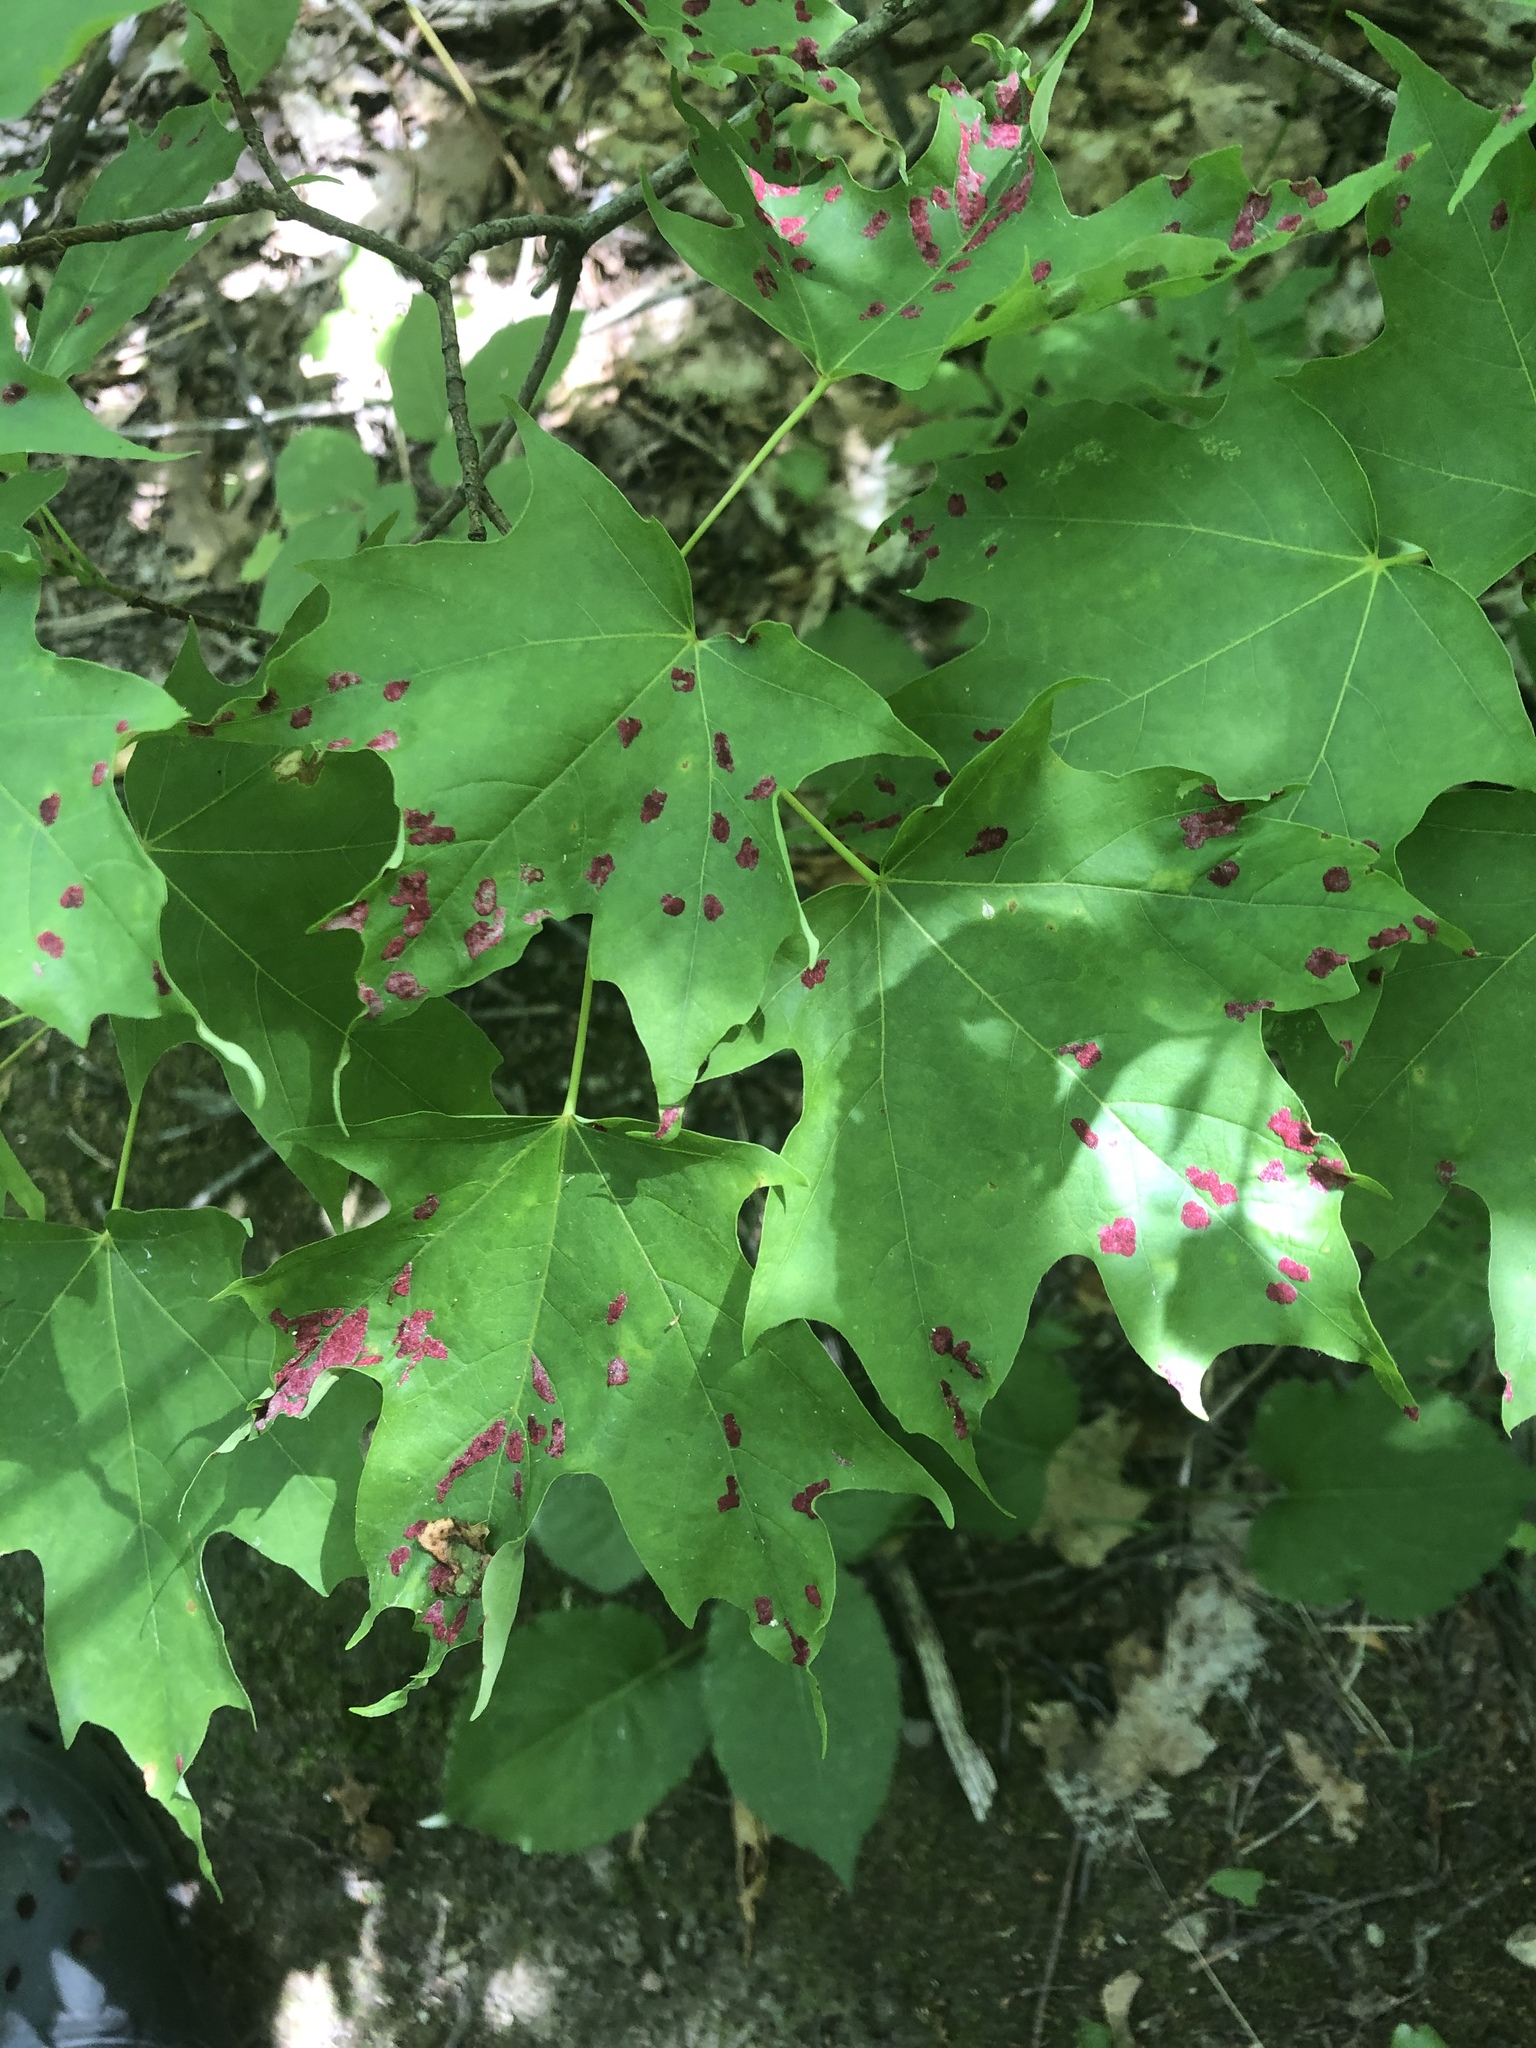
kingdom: Animalia
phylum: Arthropoda
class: Arachnida
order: Trombidiformes
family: Eriophyidae
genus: Aceria
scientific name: Aceria
